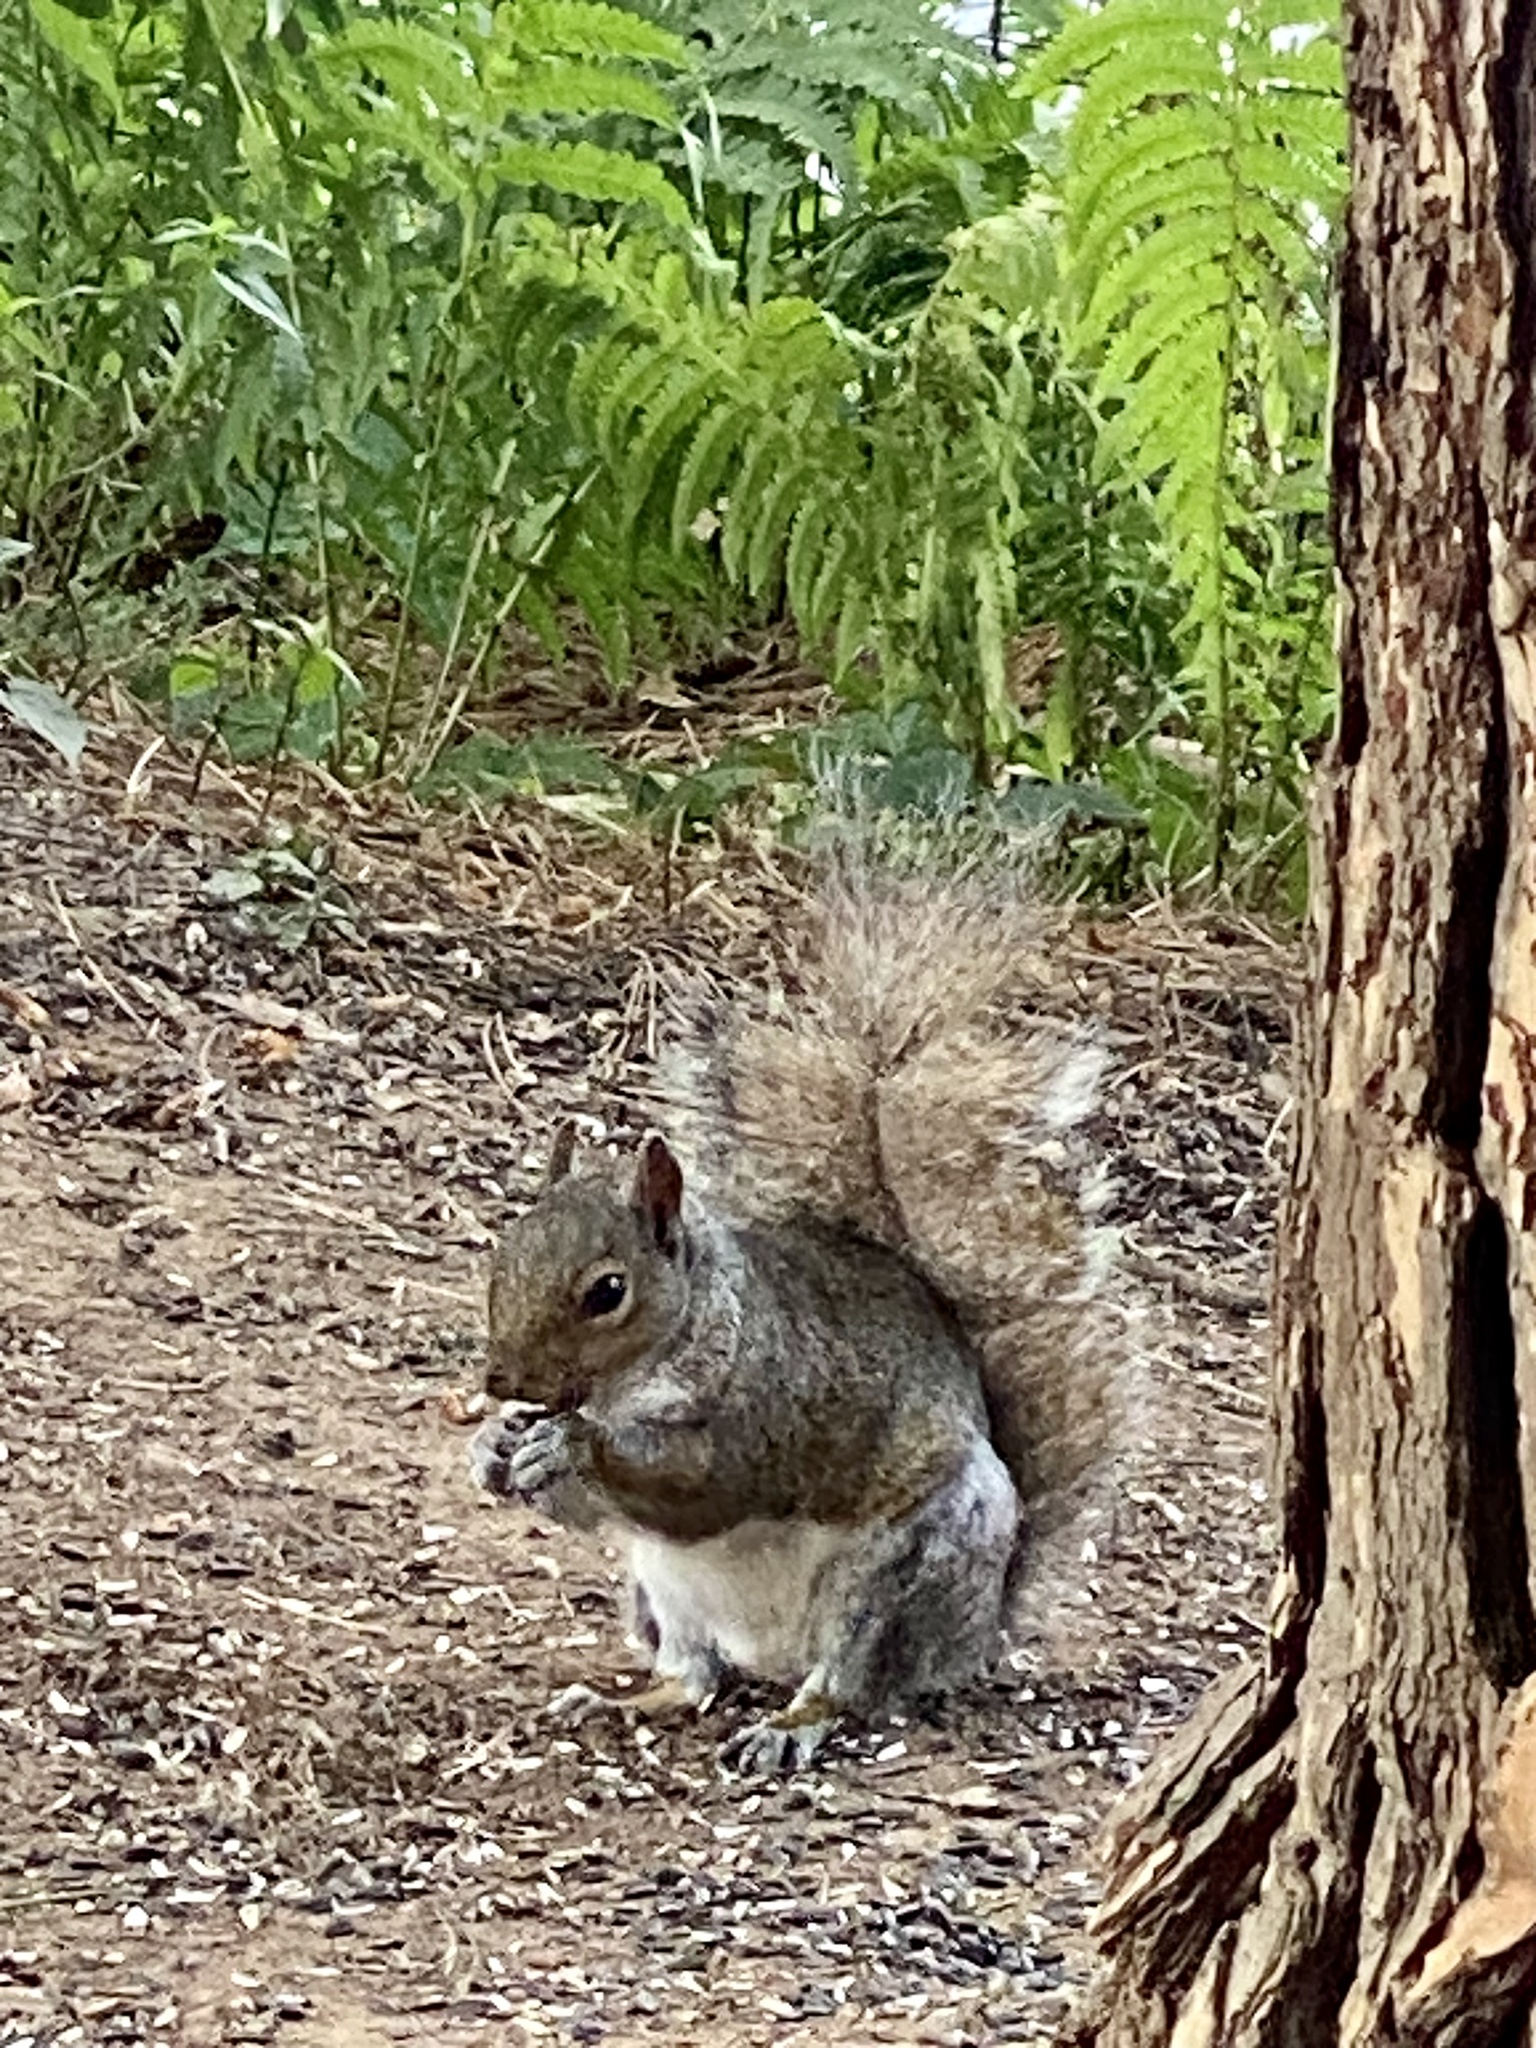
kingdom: Animalia
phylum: Chordata
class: Mammalia
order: Rodentia
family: Sciuridae
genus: Sciurus
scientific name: Sciurus carolinensis
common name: Eastern gray squirrel
